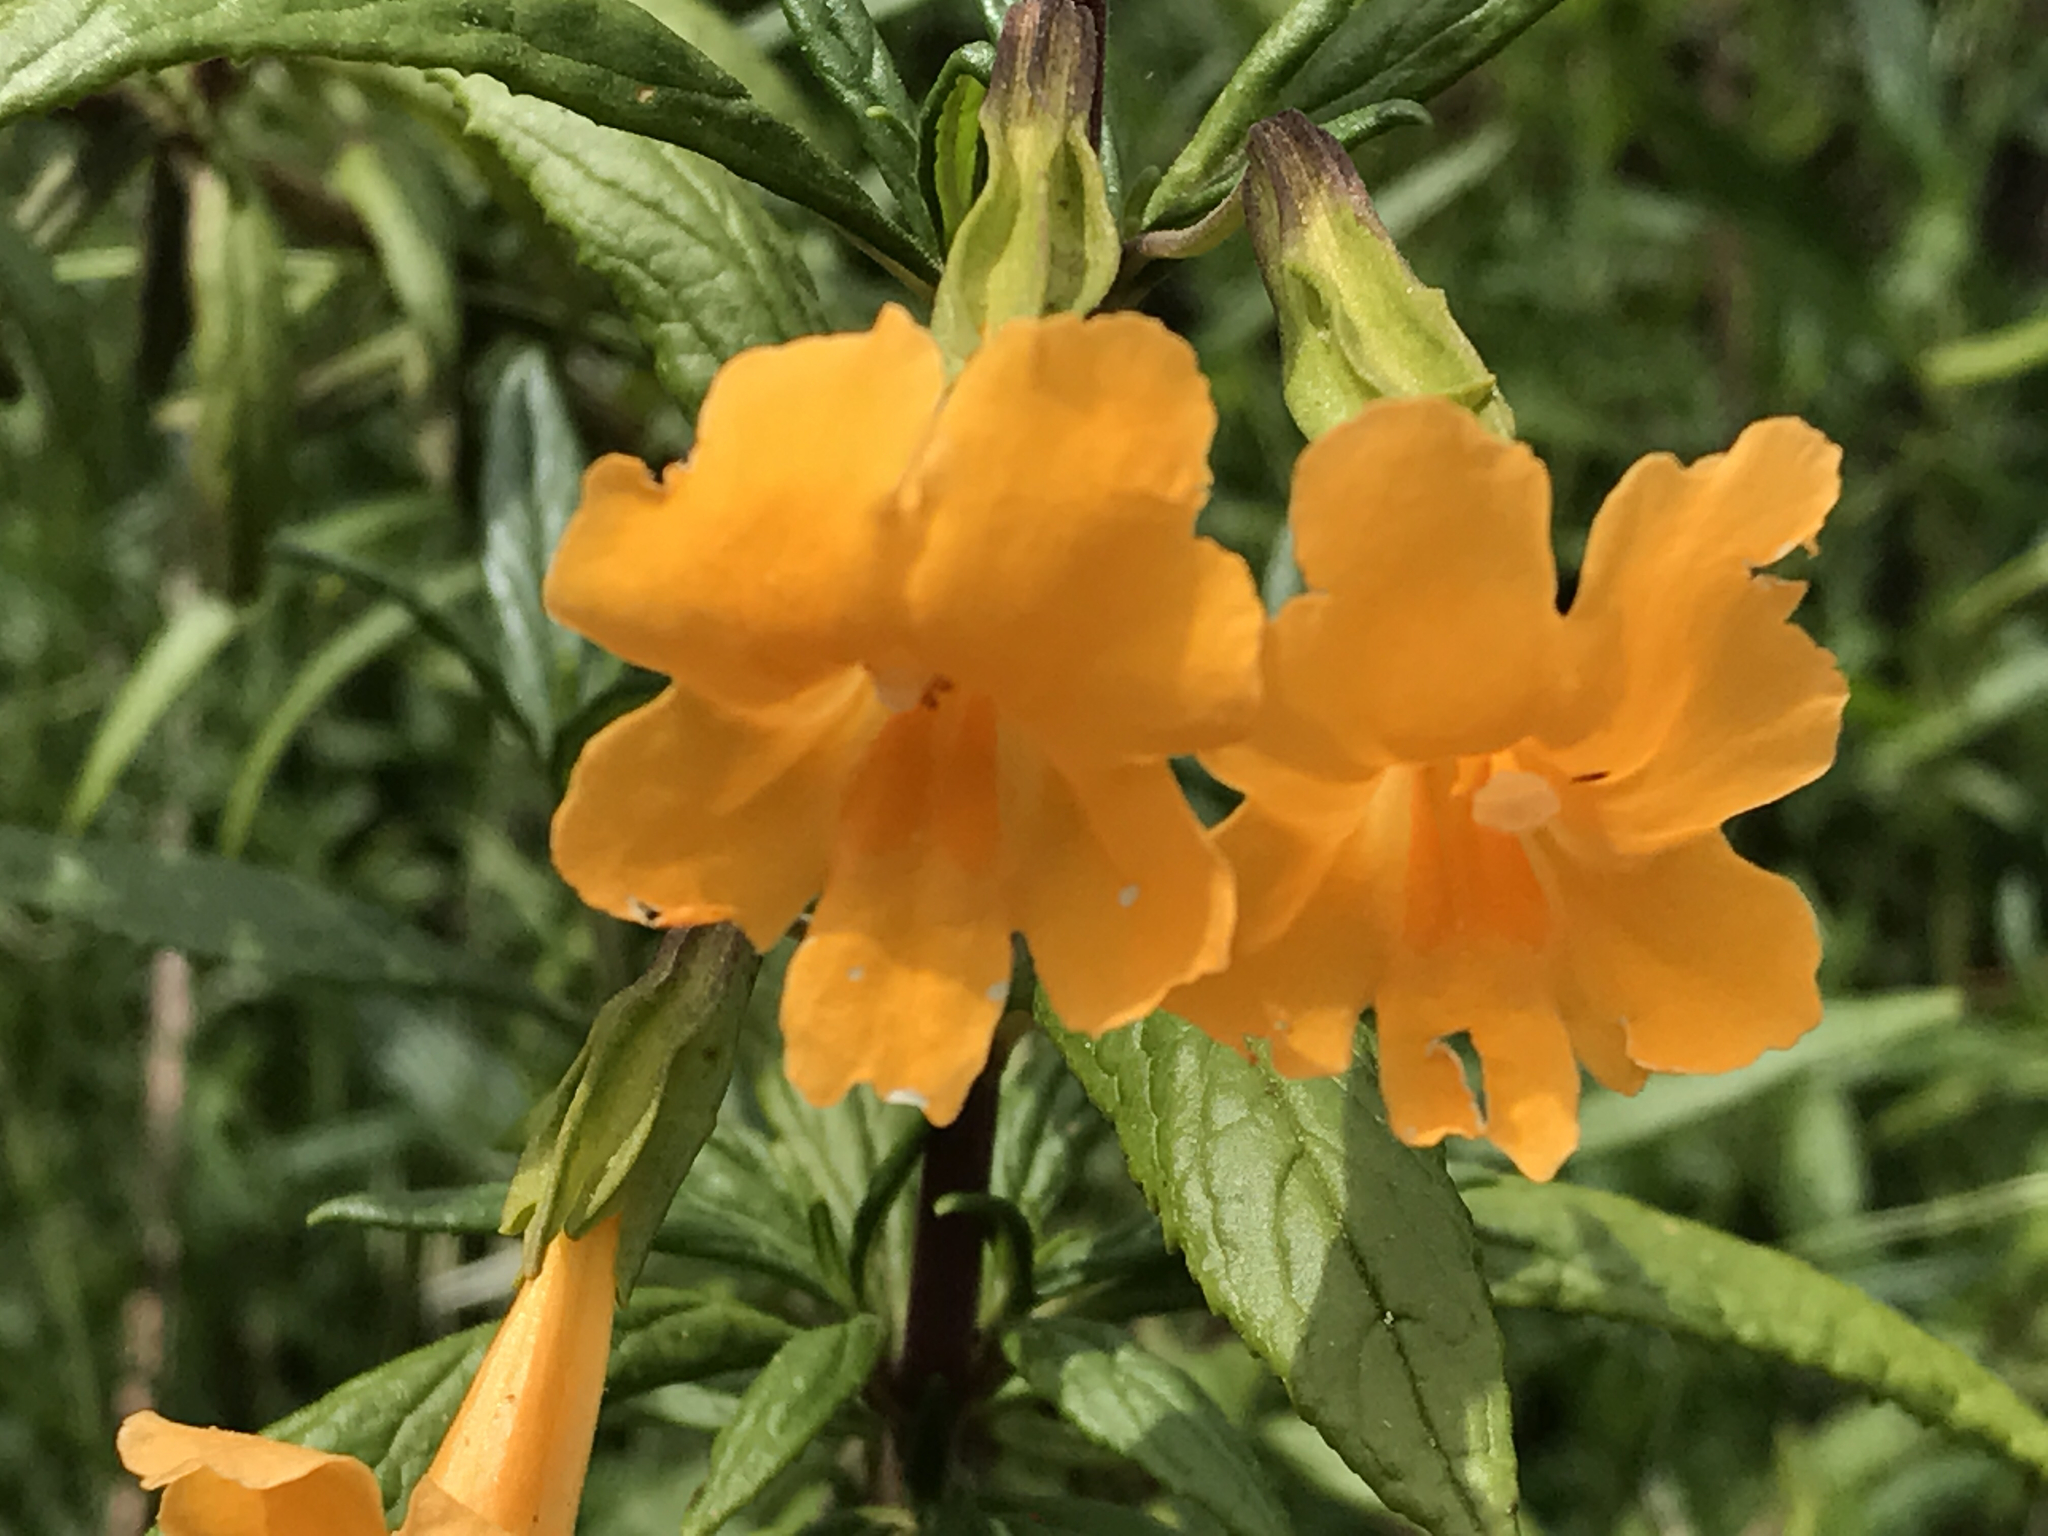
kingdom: Plantae
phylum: Tracheophyta
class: Magnoliopsida
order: Lamiales
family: Phrymaceae
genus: Diplacus
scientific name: Diplacus aurantiacus
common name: Bush monkey-flower
